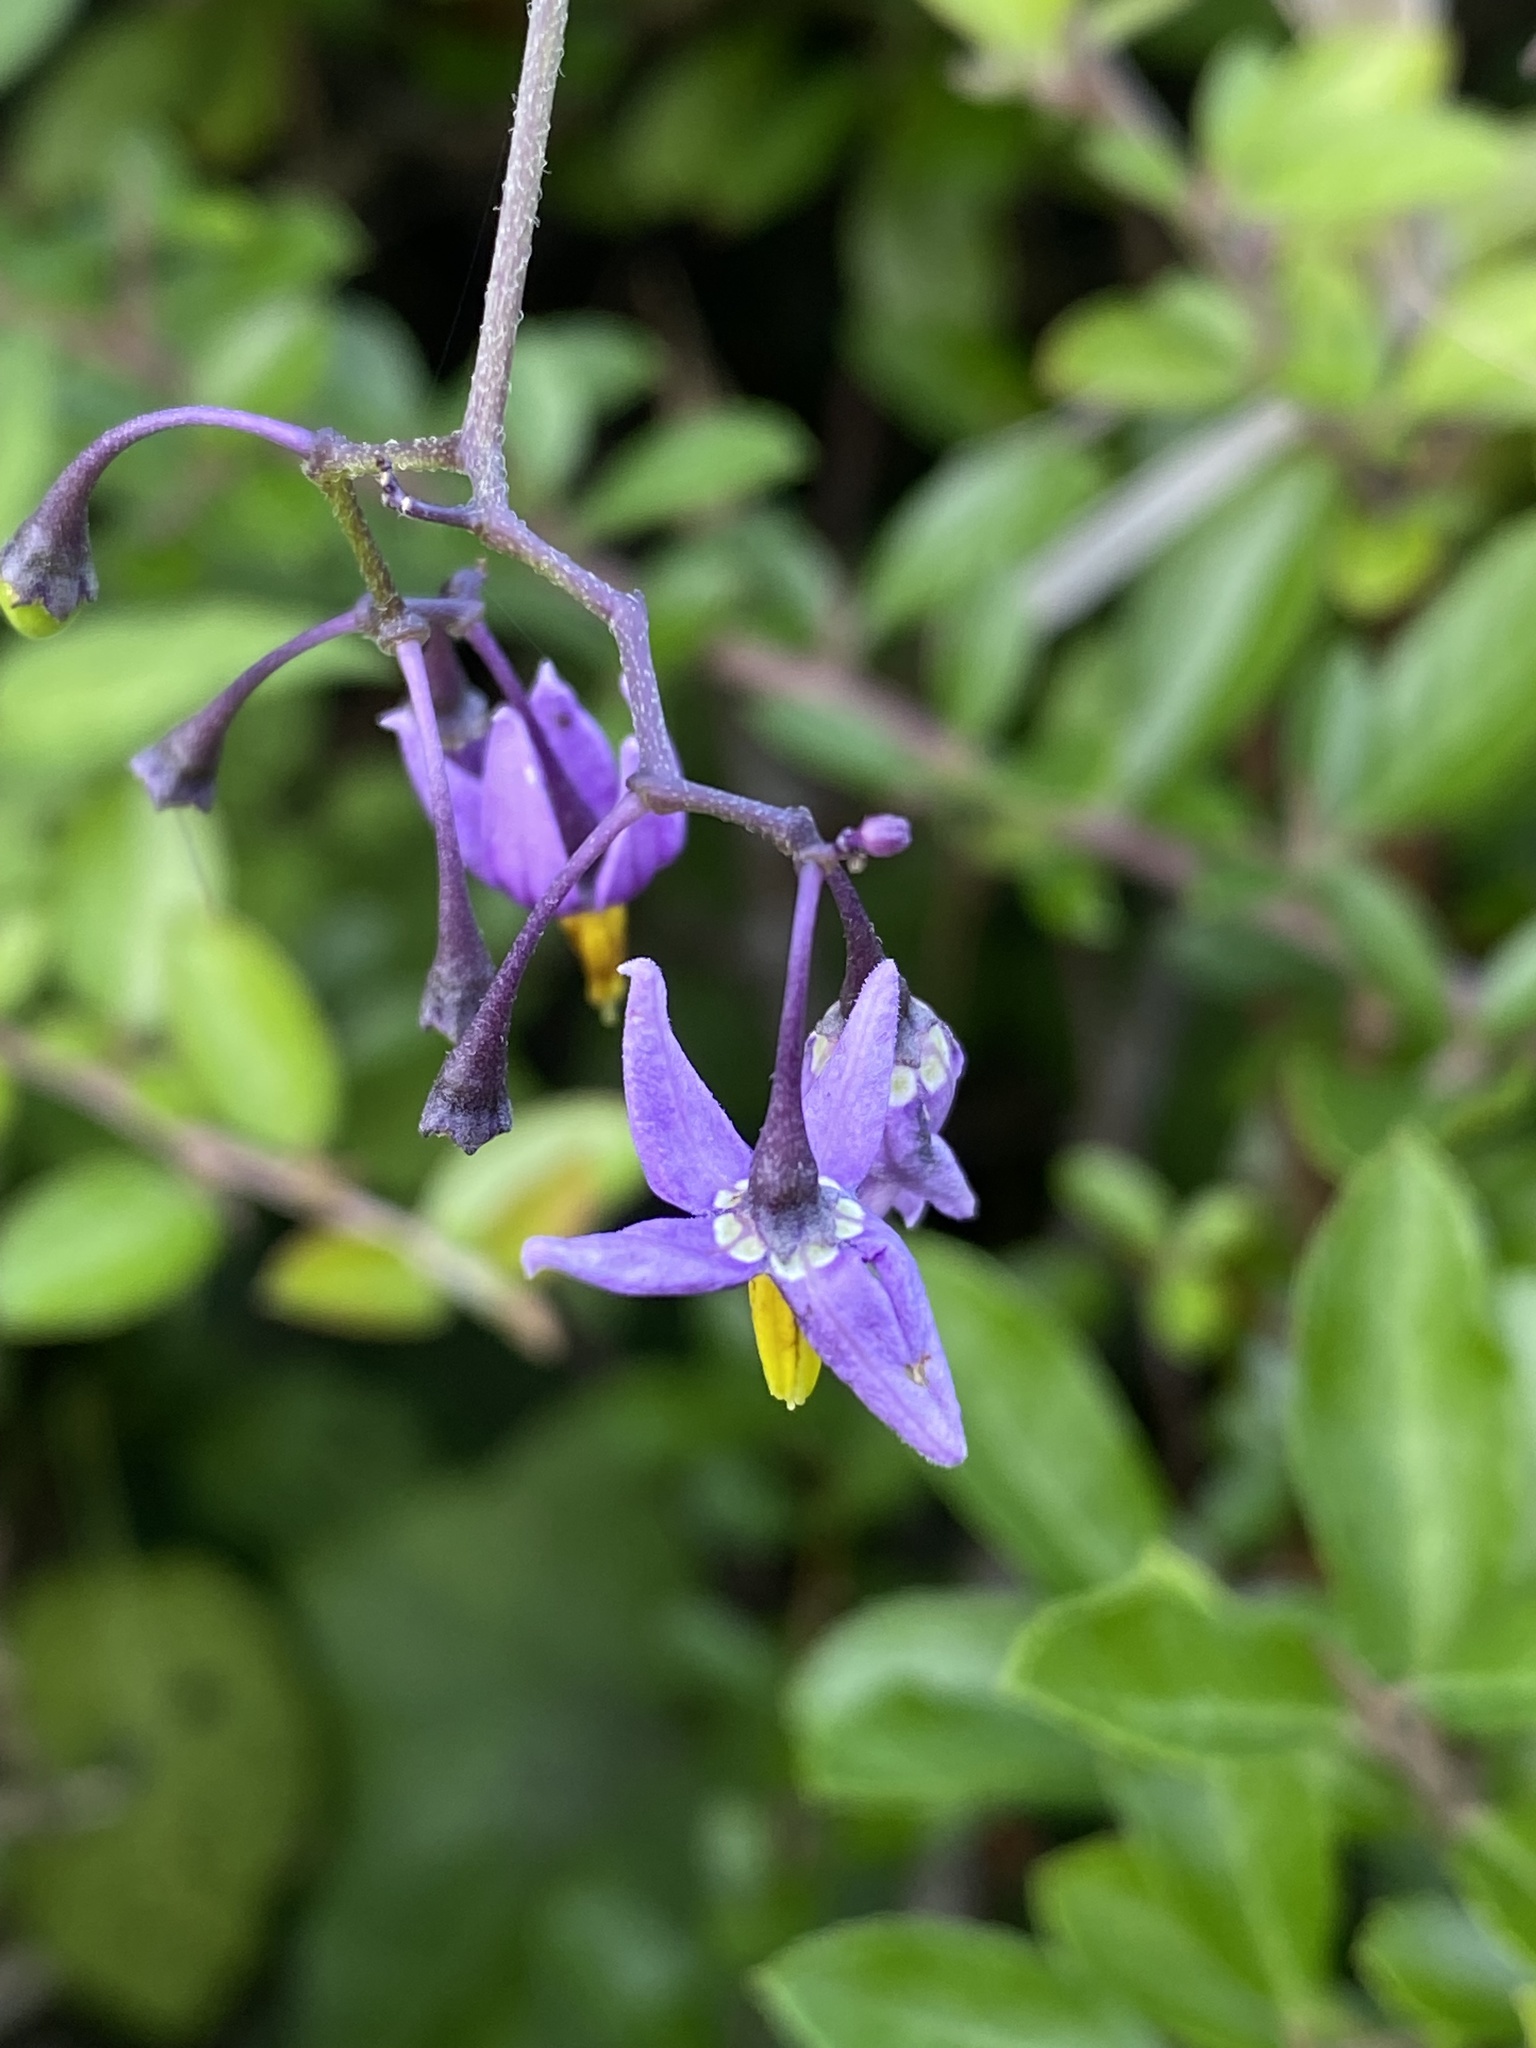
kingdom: Plantae
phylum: Tracheophyta
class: Magnoliopsida
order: Solanales
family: Solanaceae
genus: Solanum
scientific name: Solanum dulcamara
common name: Climbing nightshade
